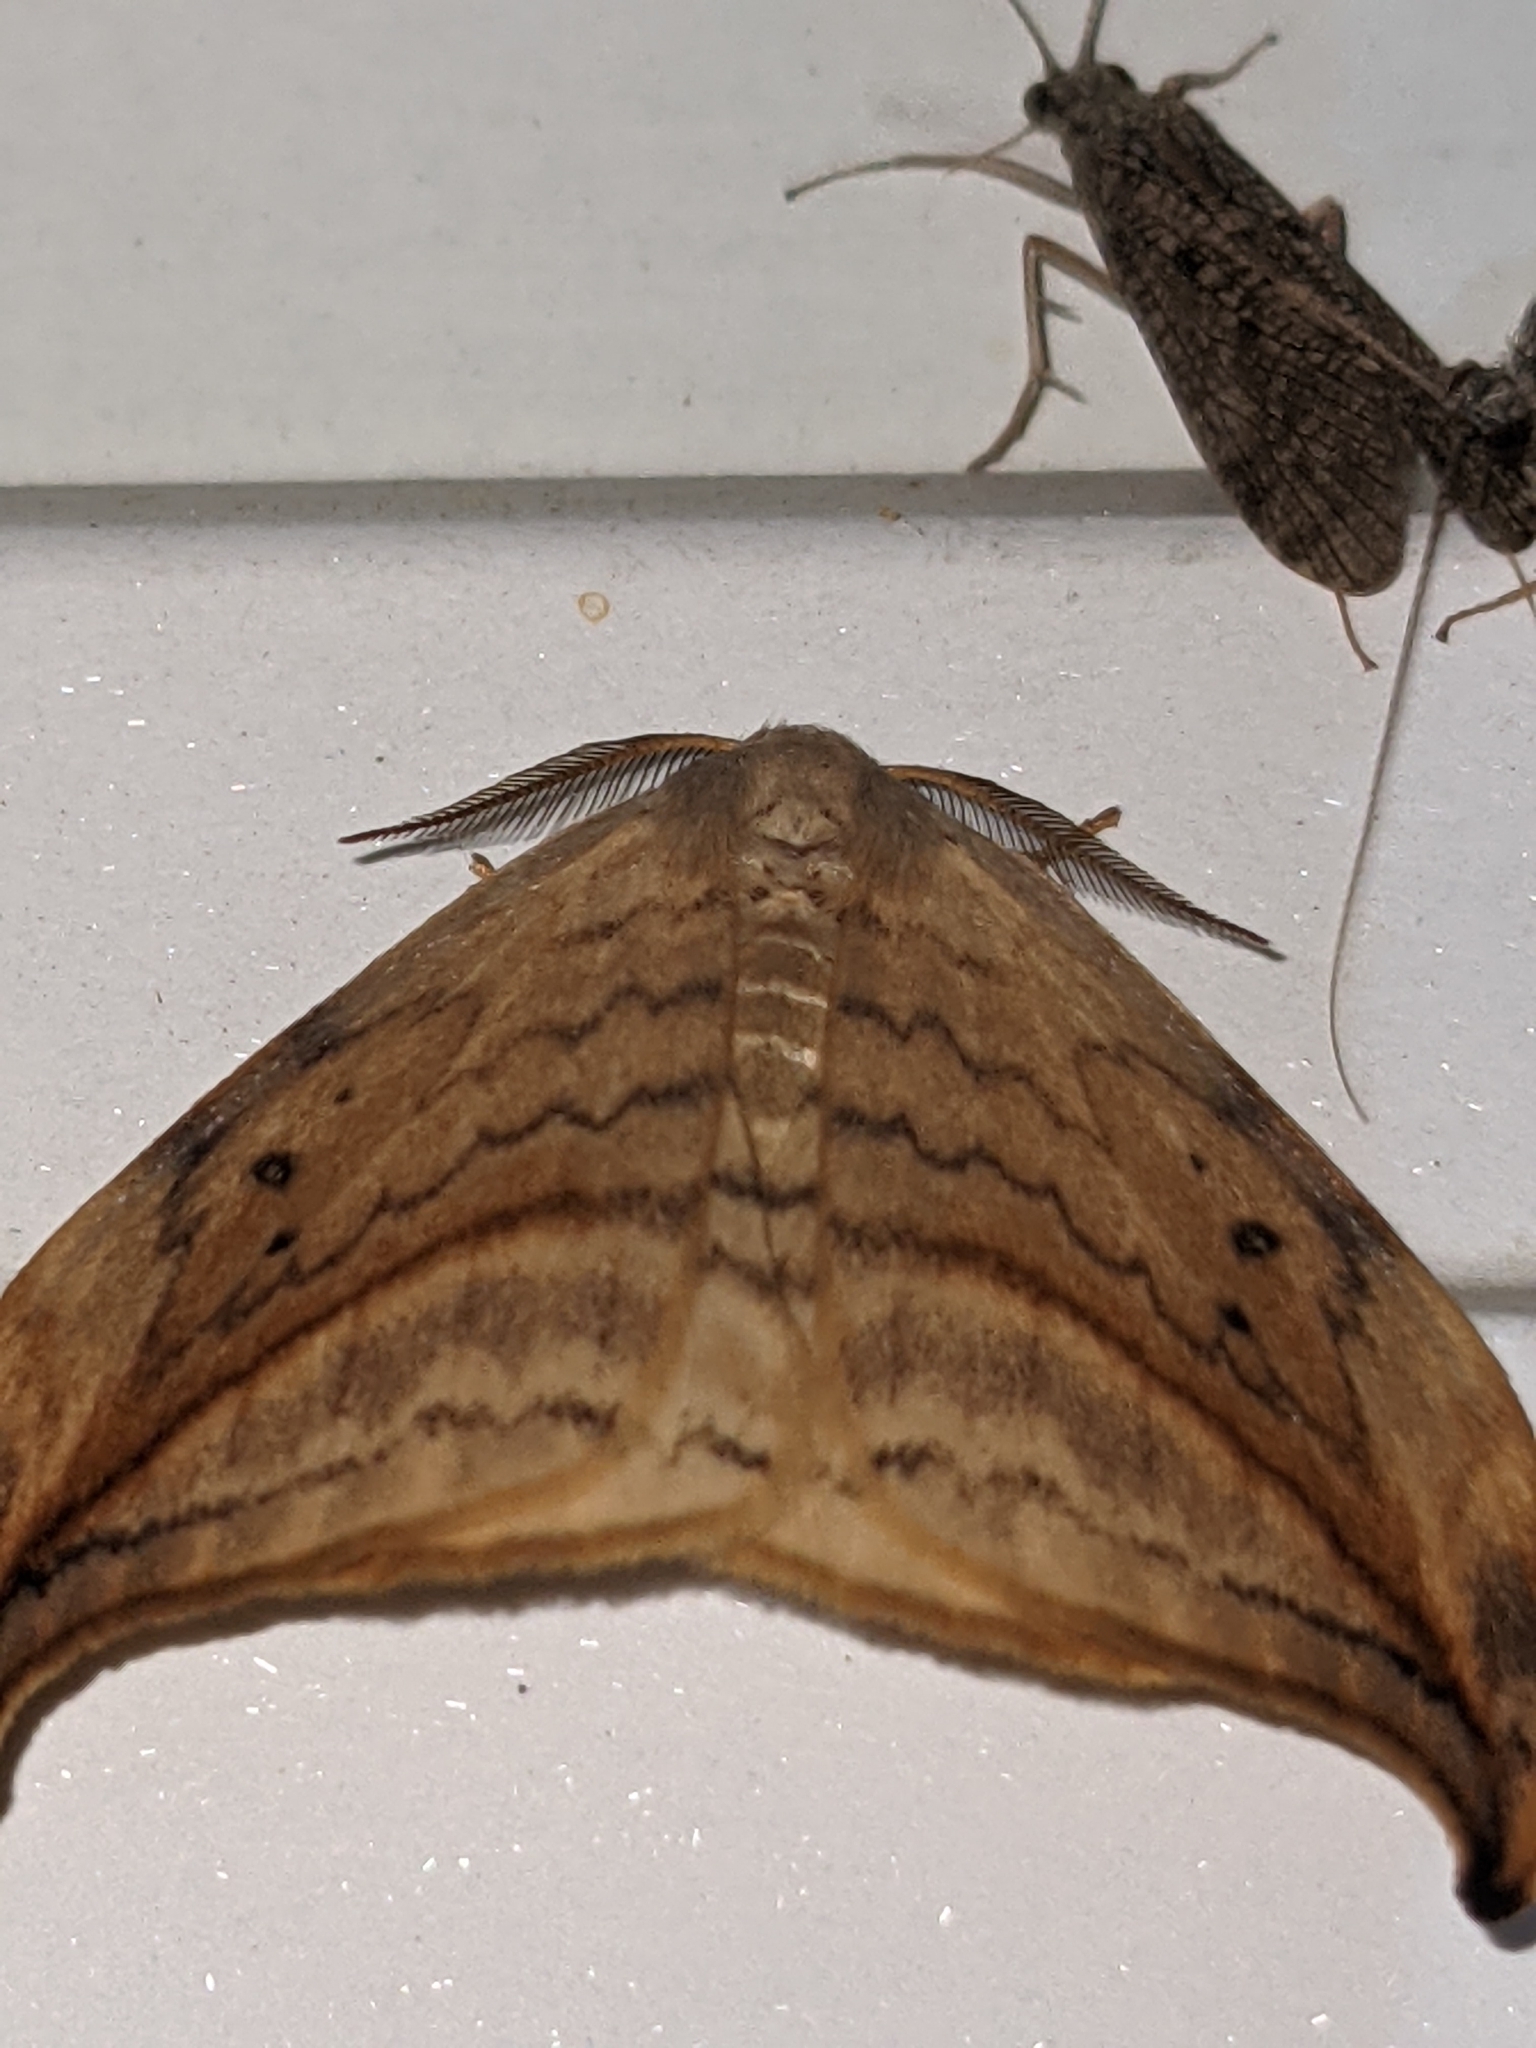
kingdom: Animalia
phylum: Arthropoda
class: Insecta
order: Lepidoptera
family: Drepanidae
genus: Drepana
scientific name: Drepana arcuata
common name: Arched hooktip moth
